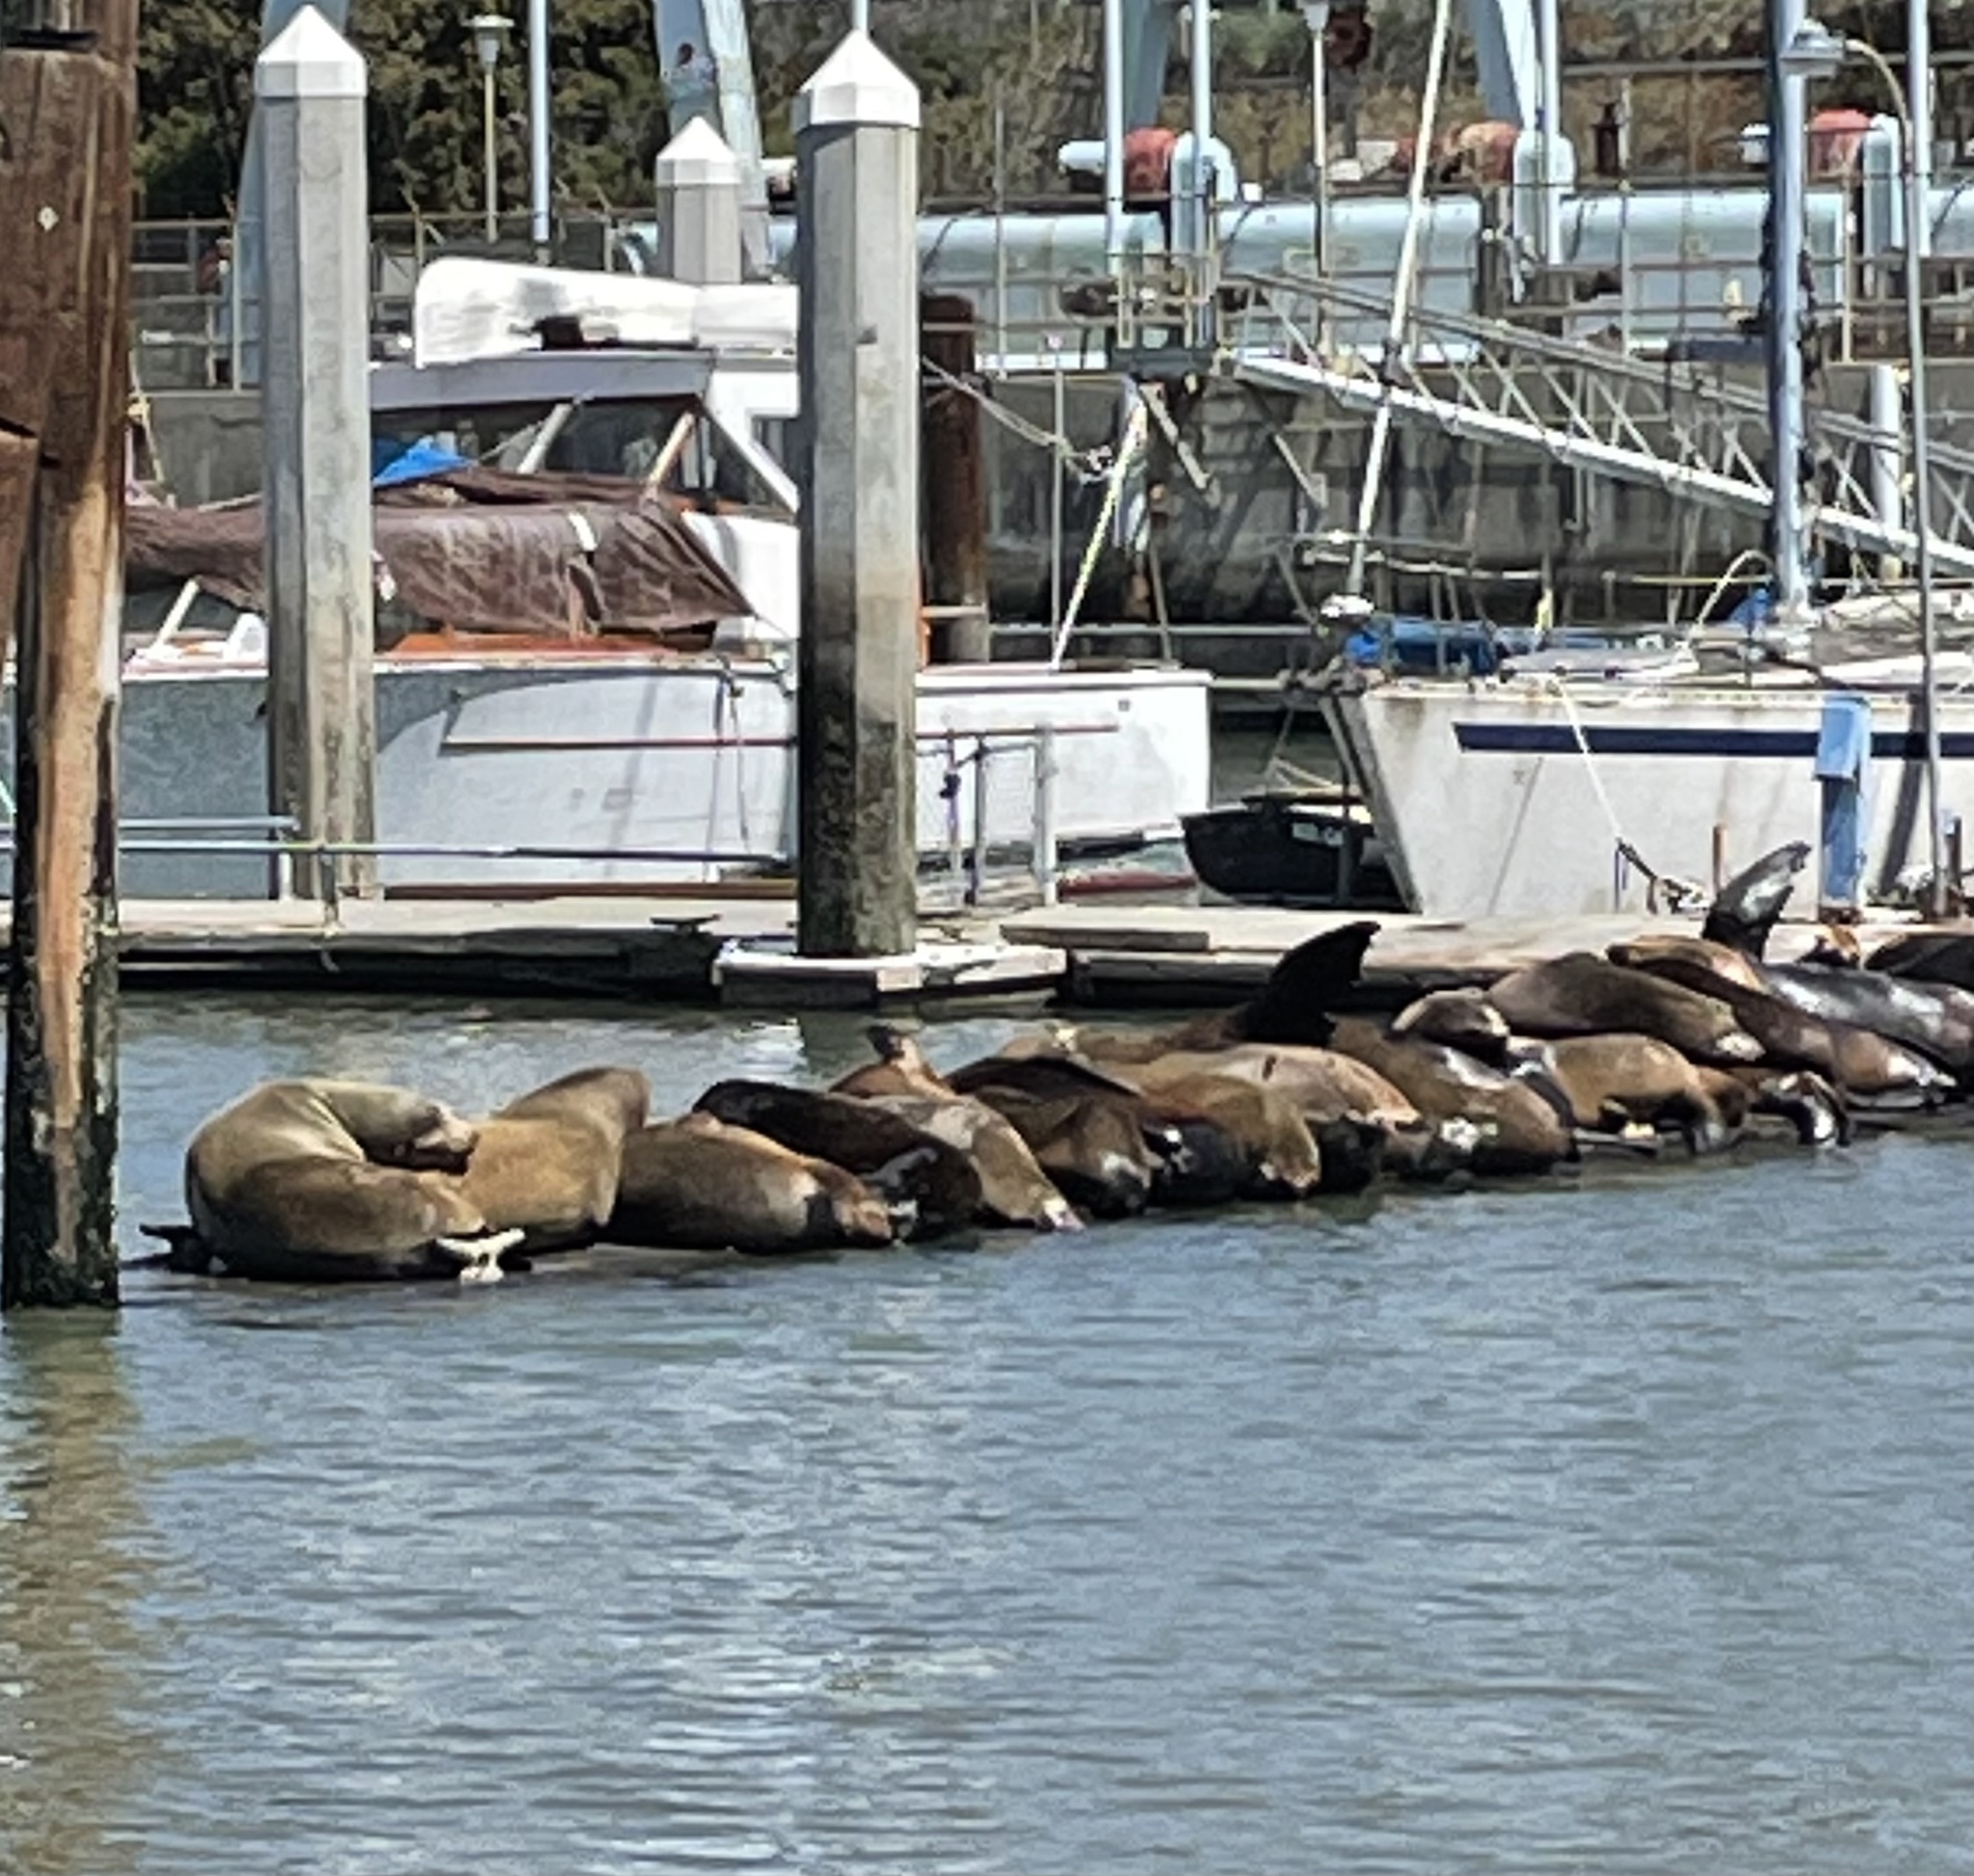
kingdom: Animalia
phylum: Chordata
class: Mammalia
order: Carnivora
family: Otariidae
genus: Zalophus
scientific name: Zalophus californianus
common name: California sea lion
